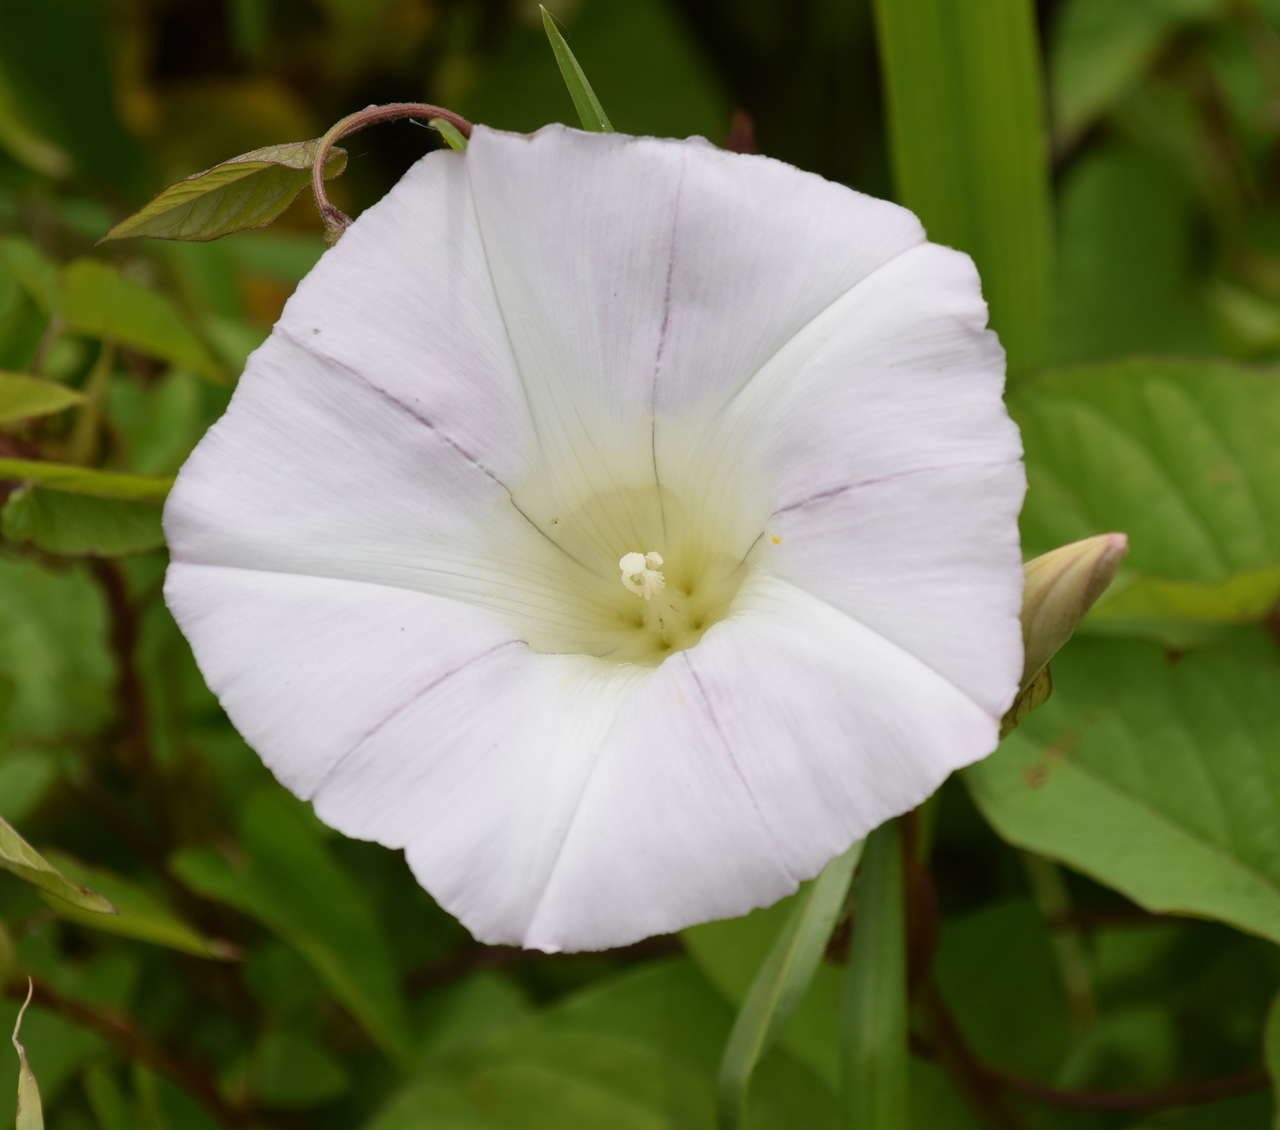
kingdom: Plantae
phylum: Tracheophyta
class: Magnoliopsida
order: Solanales
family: Convolvulaceae
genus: Calystegia
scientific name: Calystegia sepium
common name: Hedge bindweed
